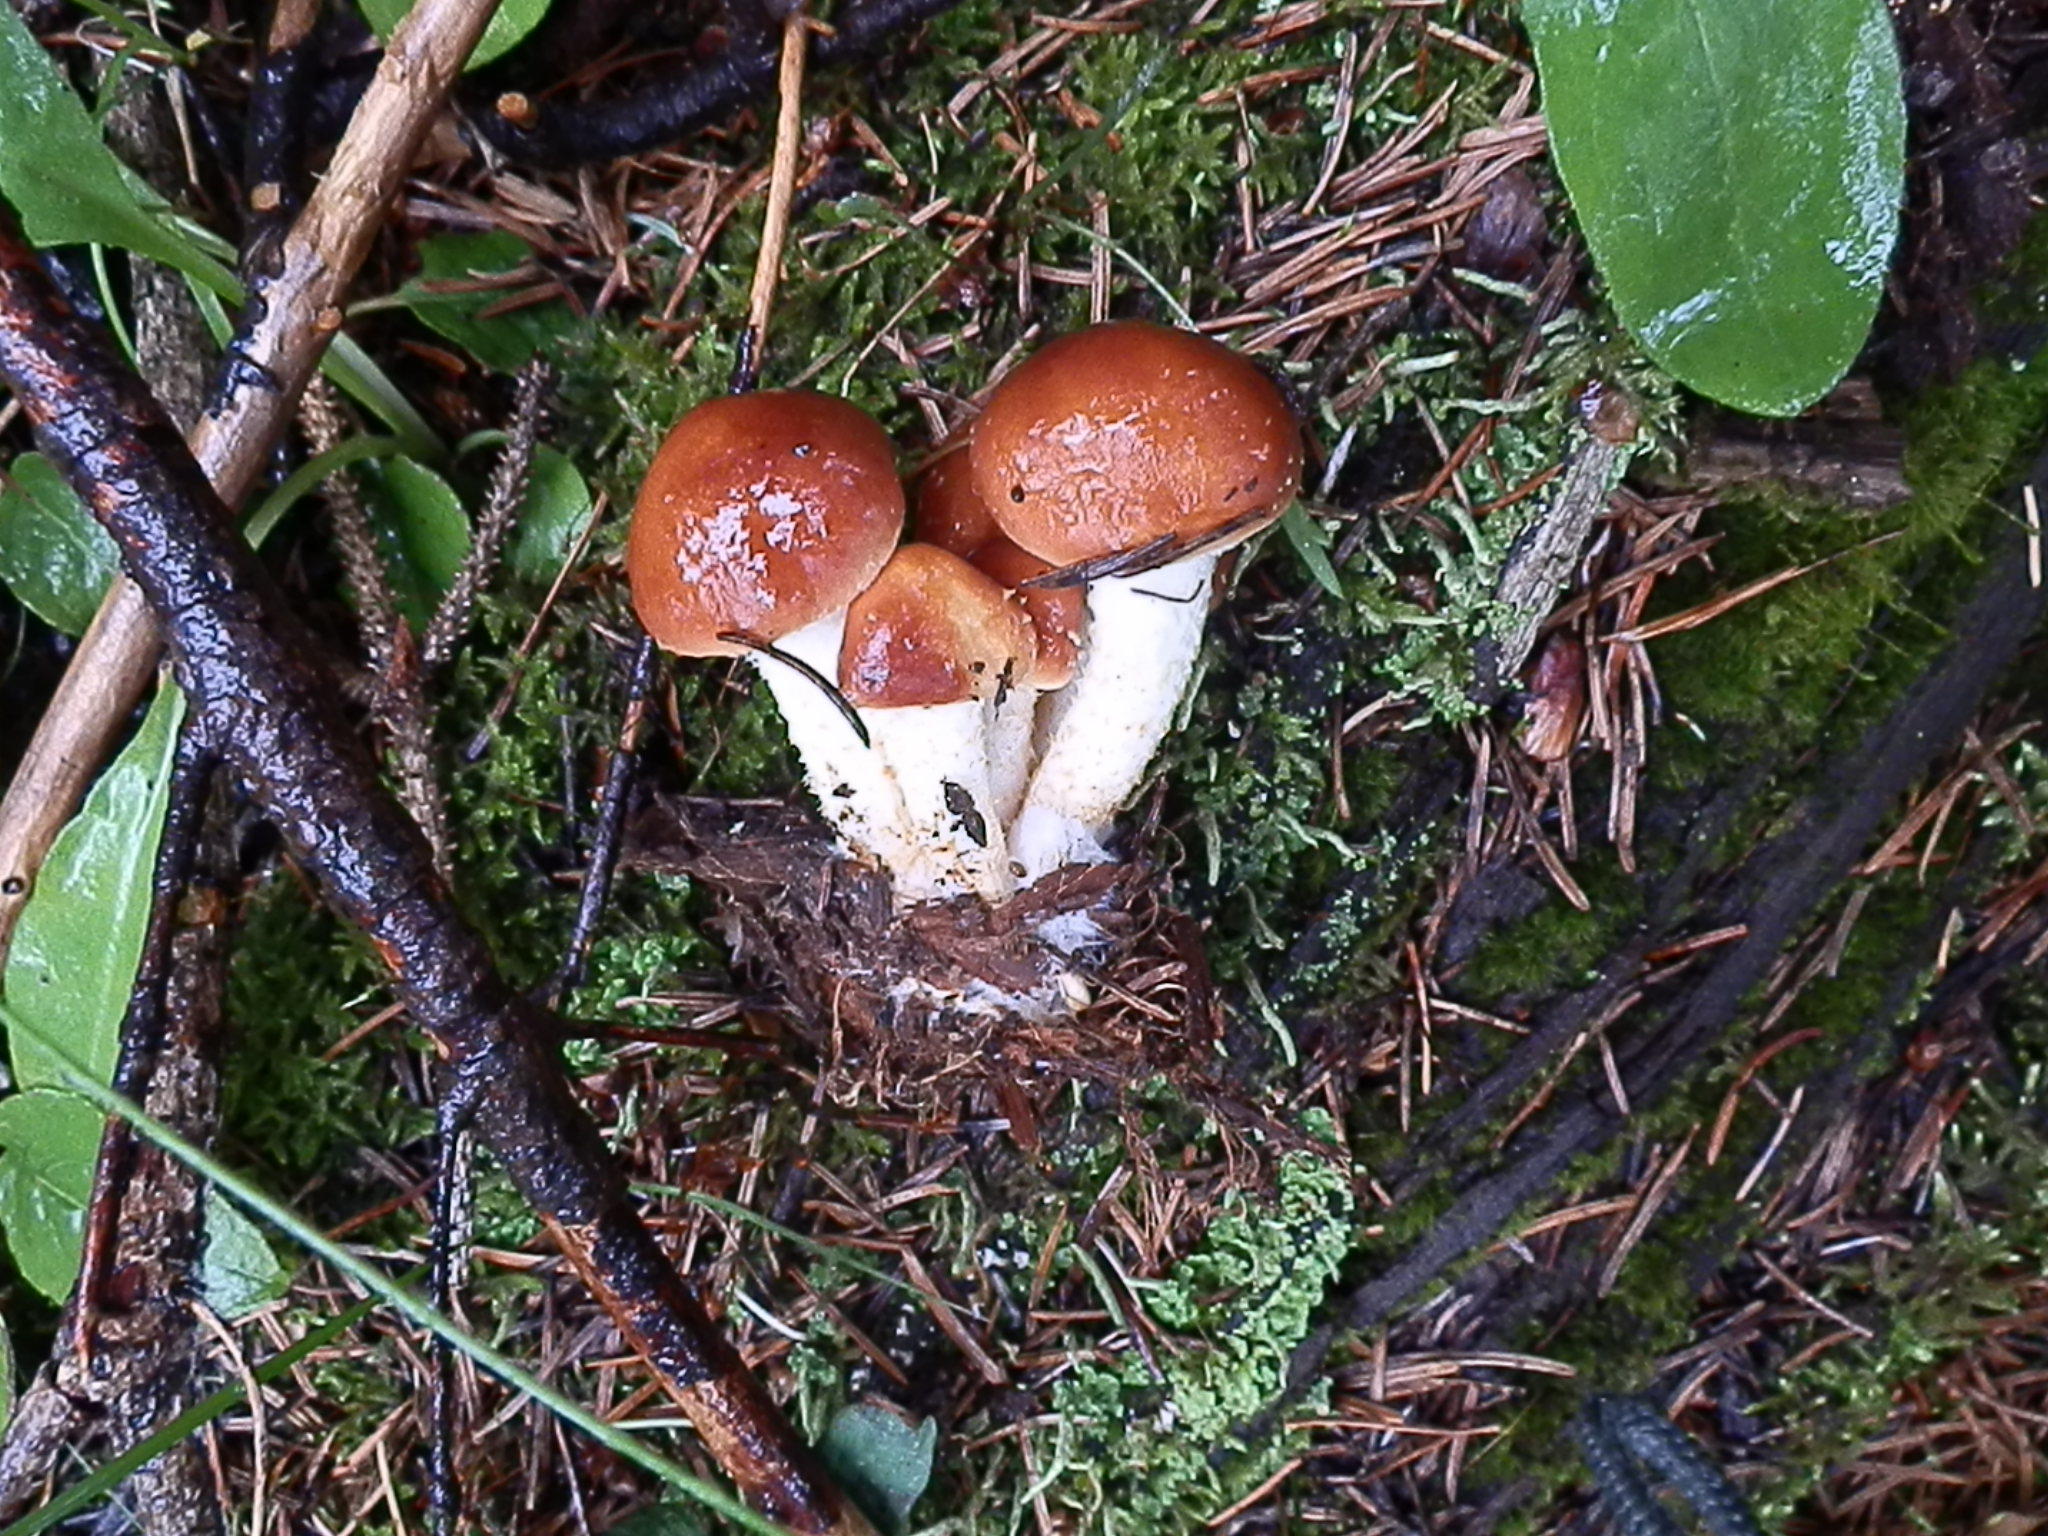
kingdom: Fungi
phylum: Basidiomycota
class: Agaricomycetes
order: Agaricales
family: Strophariaceae
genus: Pholiota
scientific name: Pholiota rufodisca
